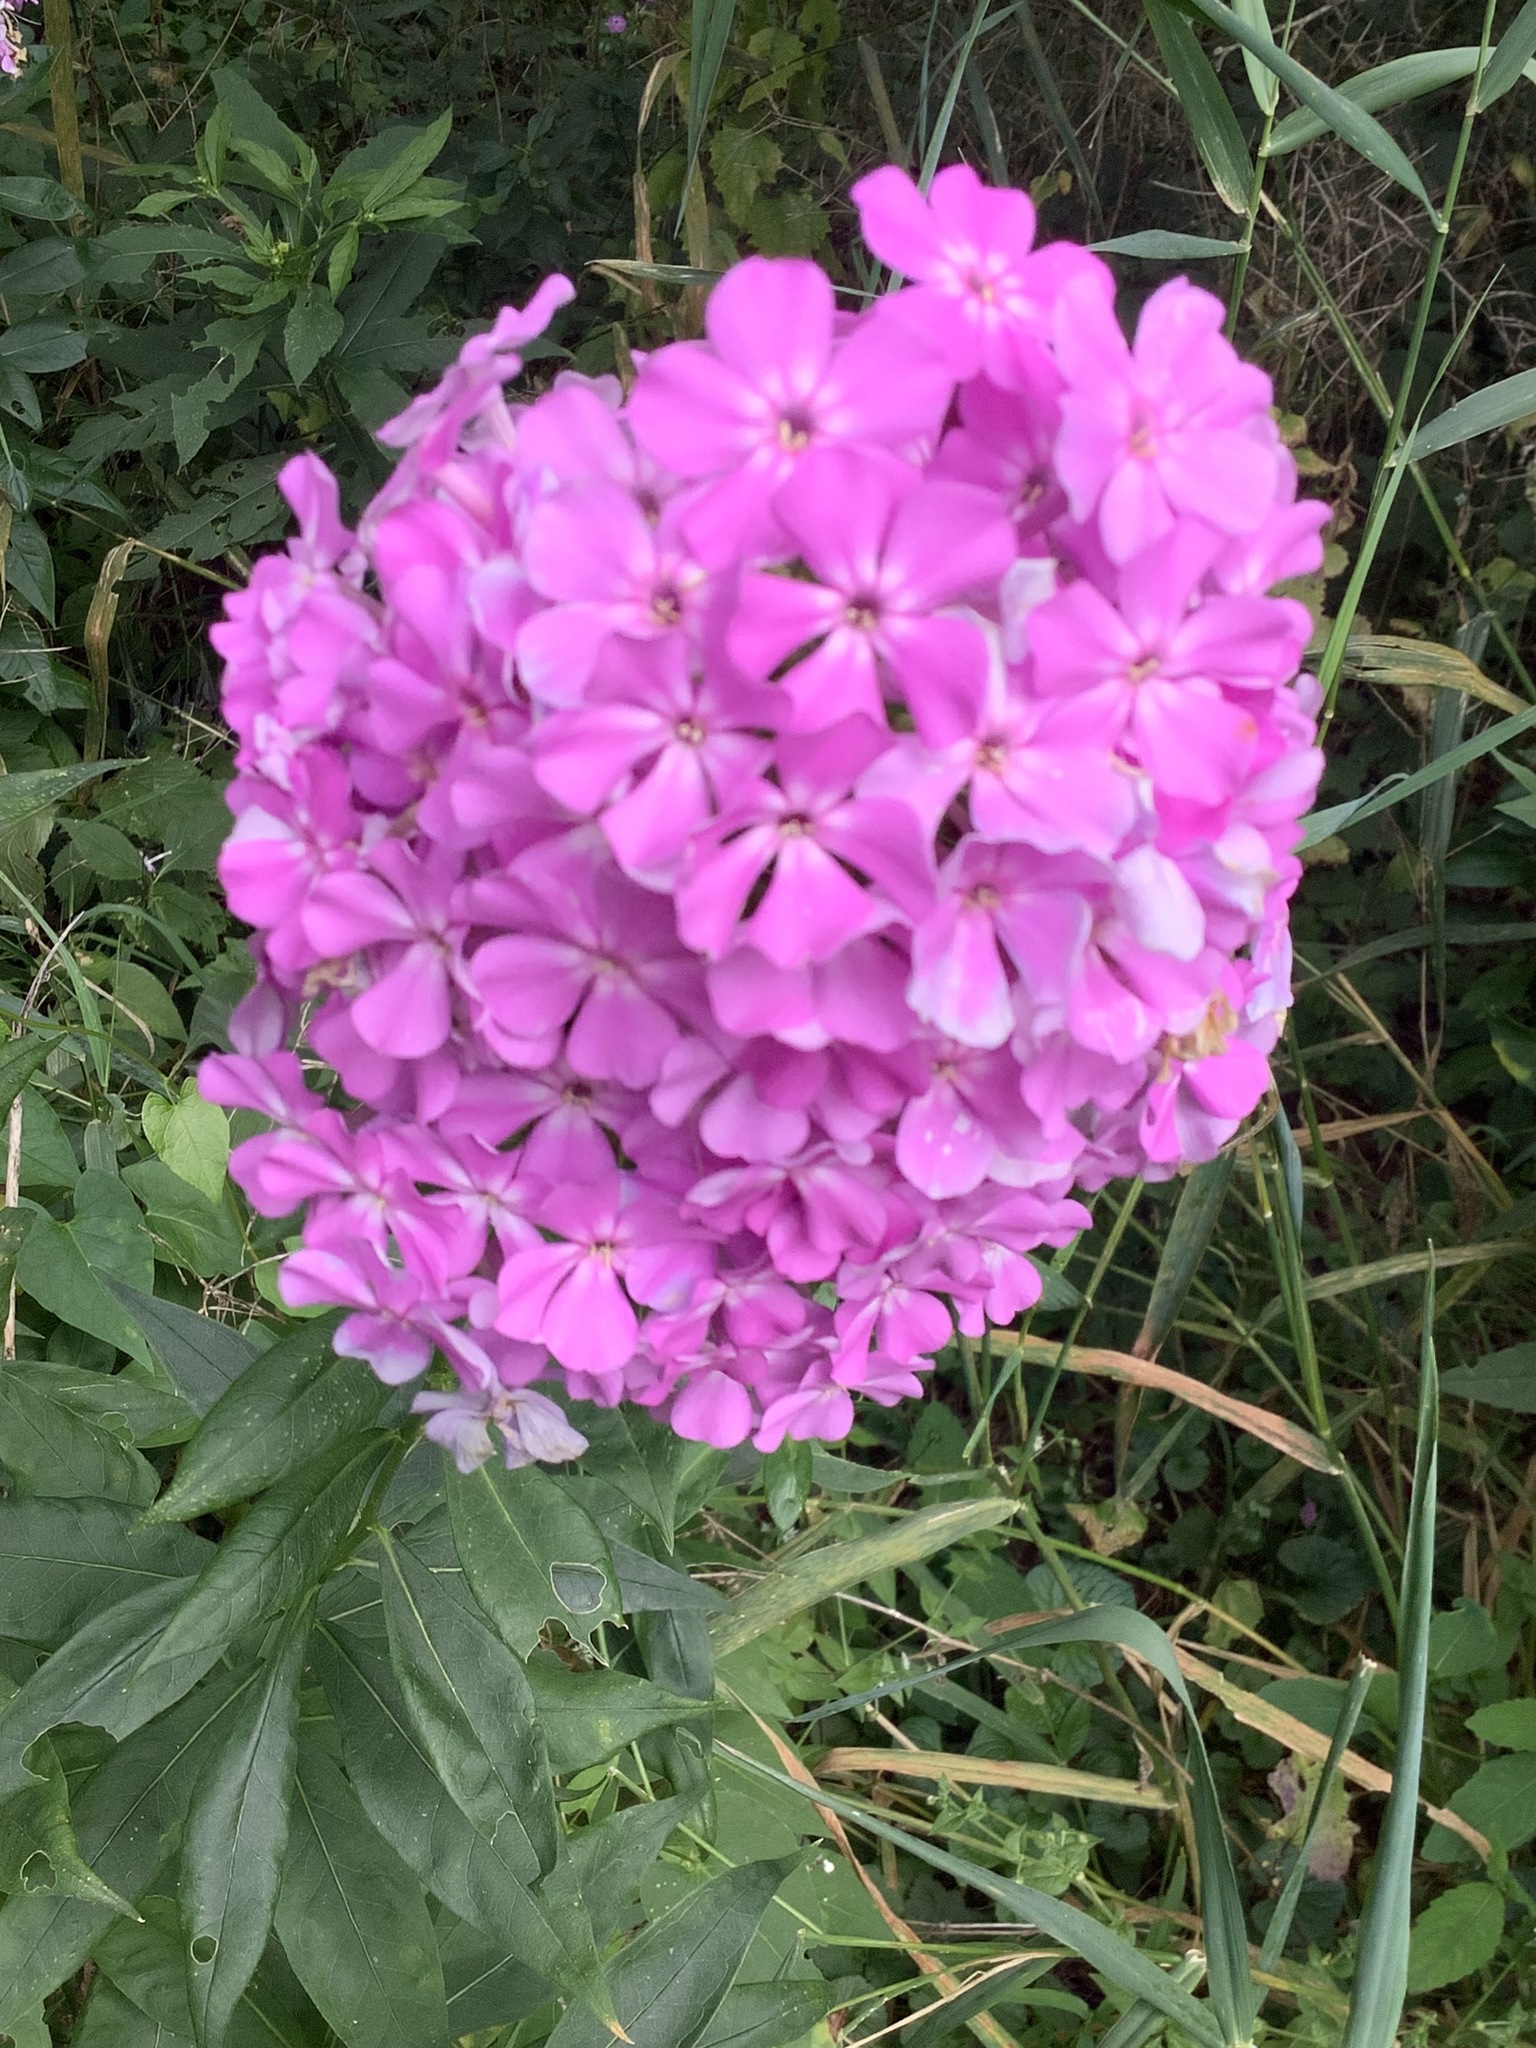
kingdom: Plantae
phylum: Tracheophyta
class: Magnoliopsida
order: Ericales
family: Polemoniaceae
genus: Phlox
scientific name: Phlox paniculata
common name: Fall phlox
